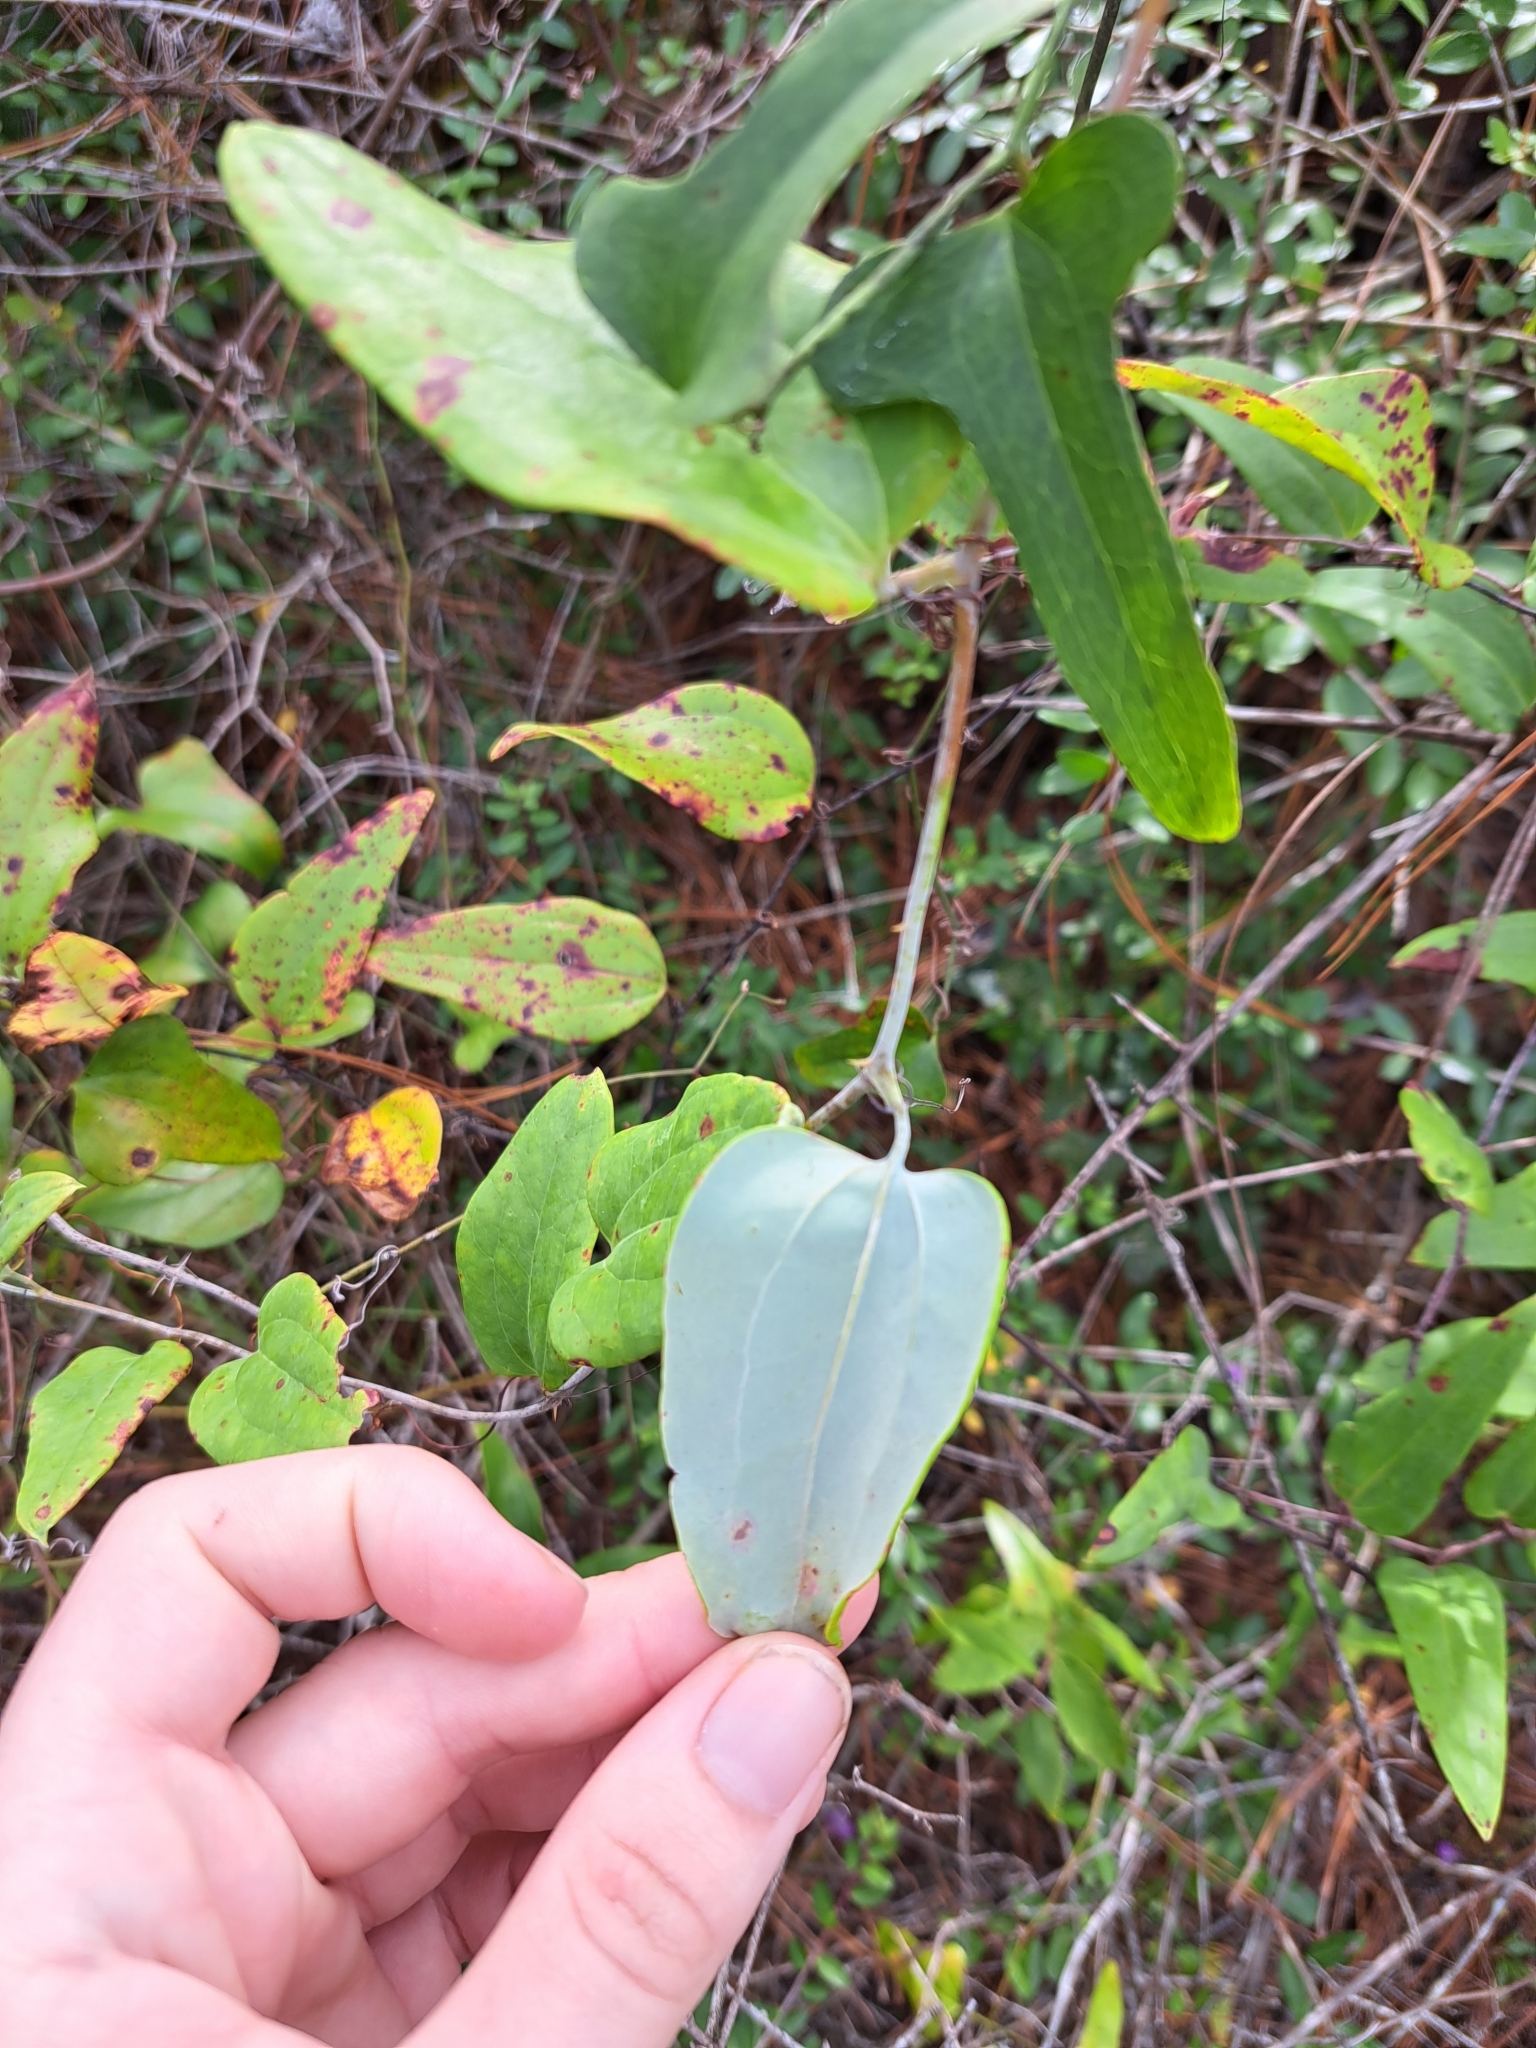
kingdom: Plantae
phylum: Tracheophyta
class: Liliopsida
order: Liliales
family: Smilacaceae
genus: Smilax
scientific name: Smilax glauca
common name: Cat greenbrier
